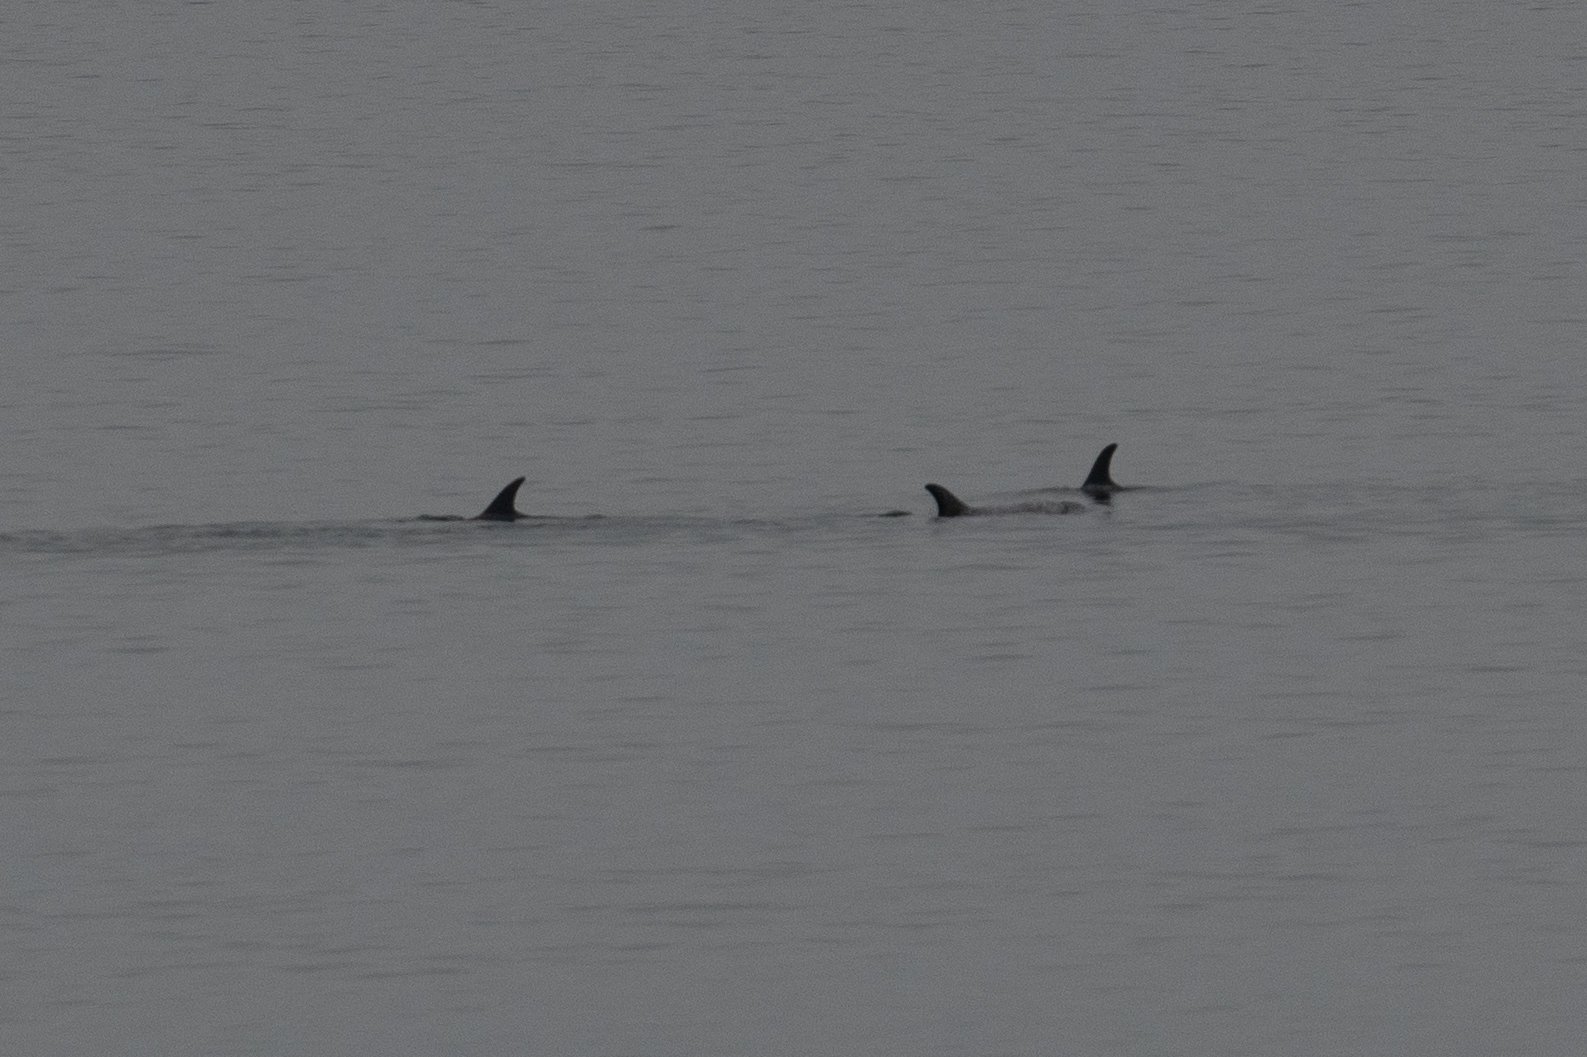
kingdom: Animalia
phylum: Chordata
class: Mammalia
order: Cetacea
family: Delphinidae
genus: Grampus
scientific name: Grampus griseus
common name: Risso's dolphin
